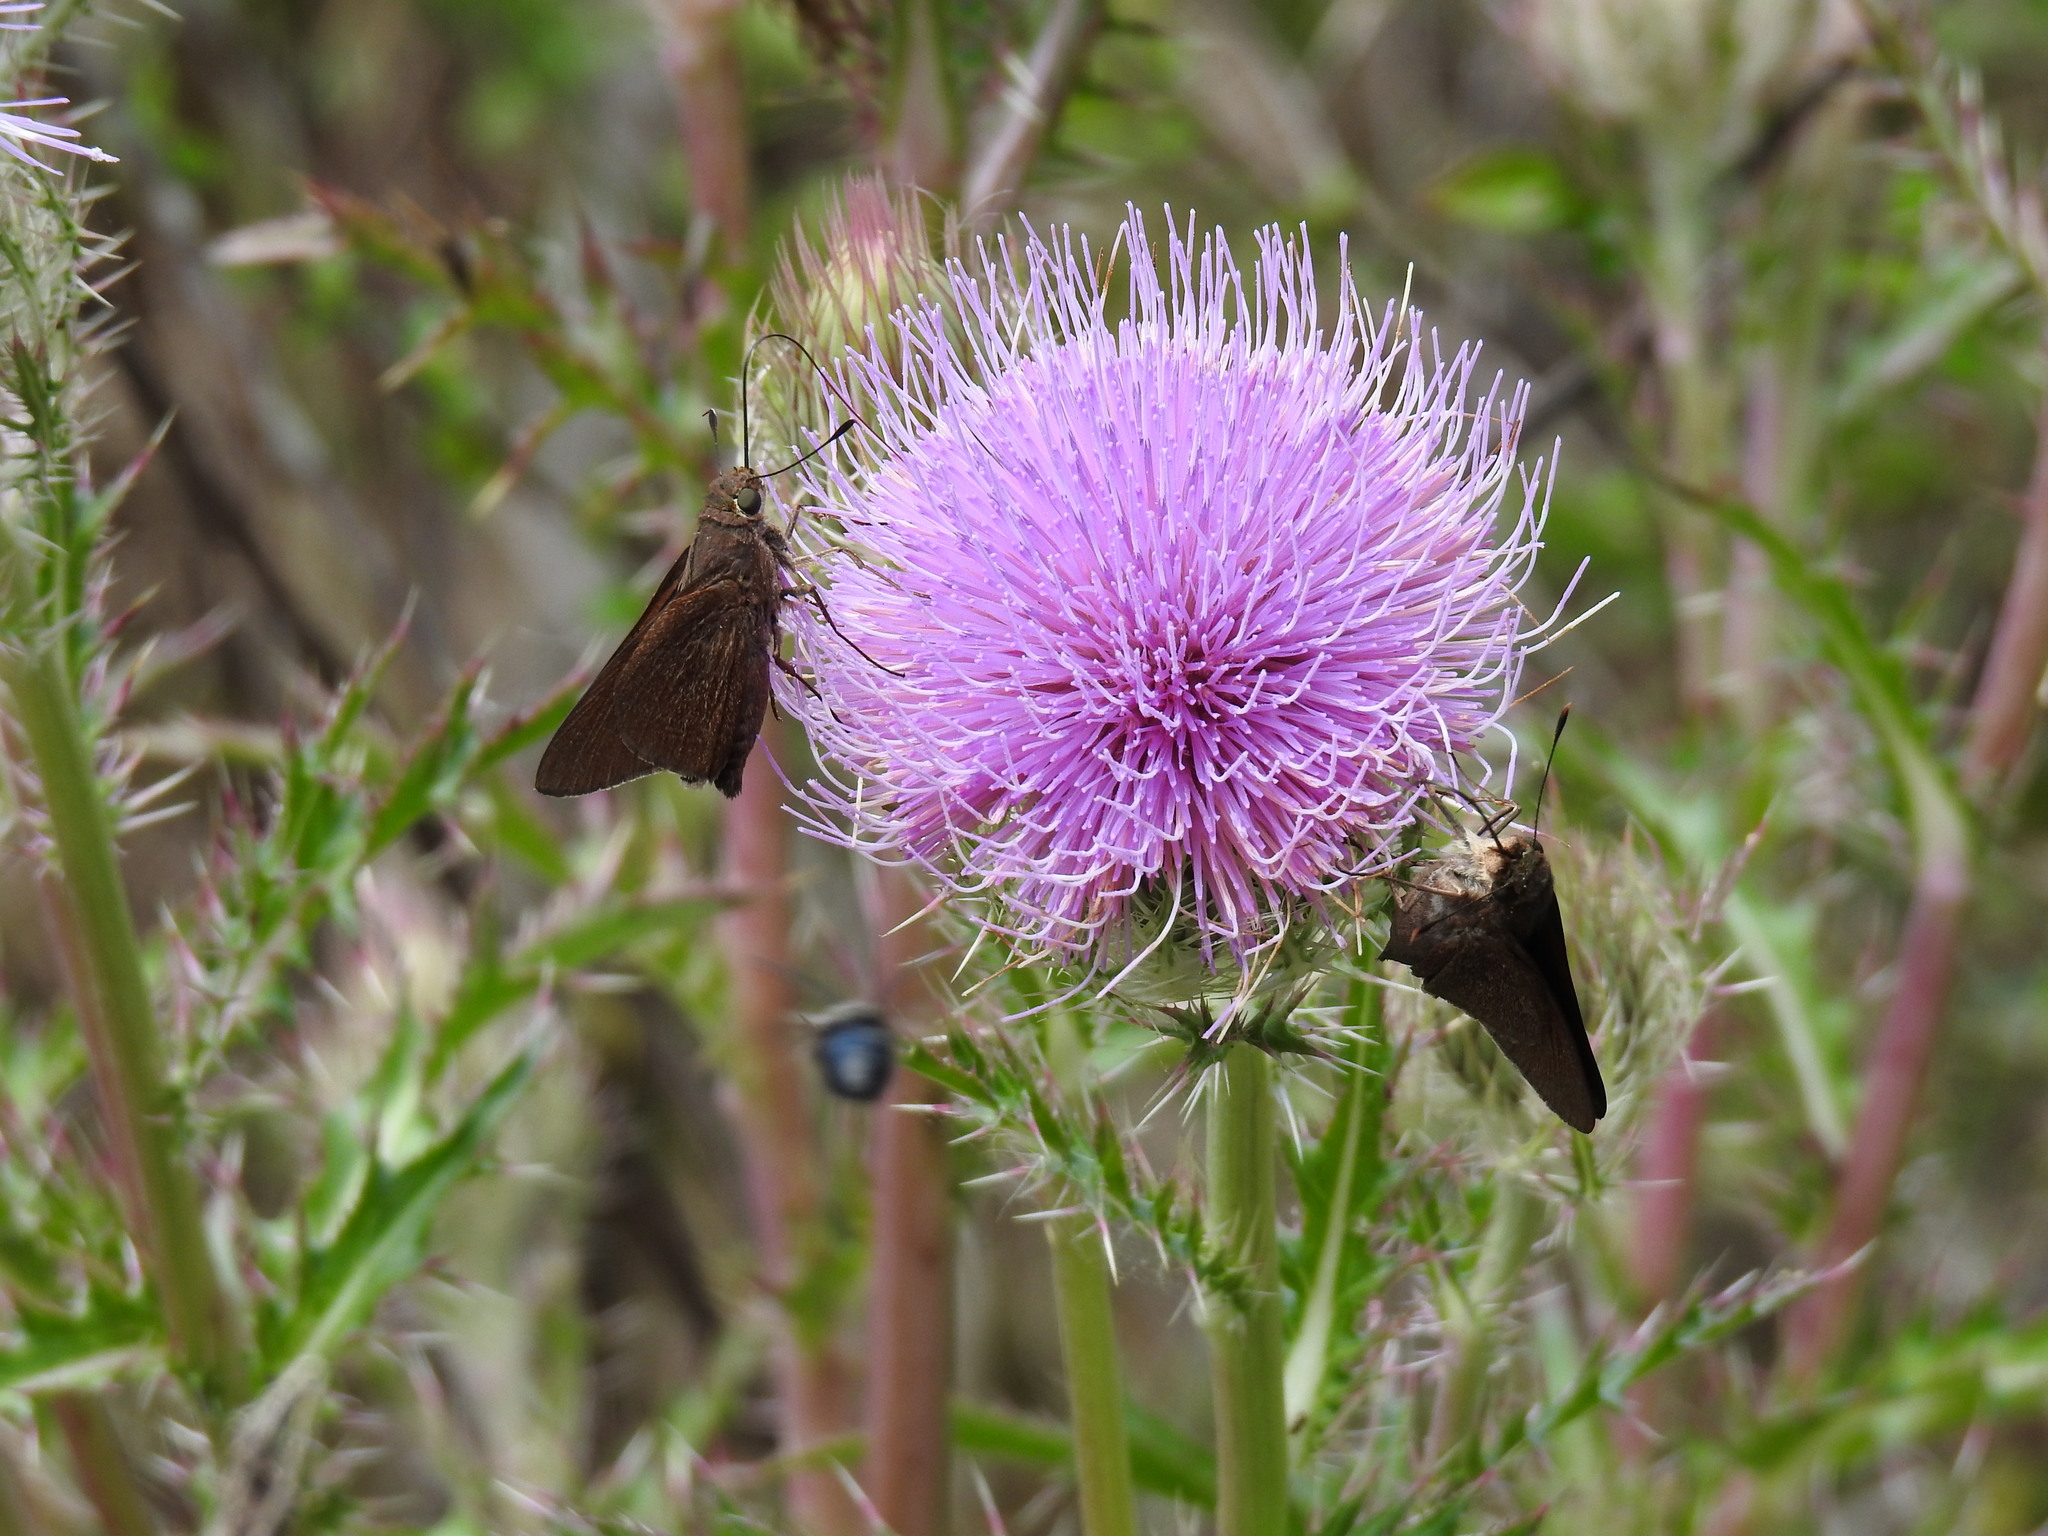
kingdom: Animalia
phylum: Arthropoda
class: Insecta
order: Lepidoptera
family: Hesperiidae
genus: Asbolis
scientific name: Asbolis capucinus
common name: Monk skipper
